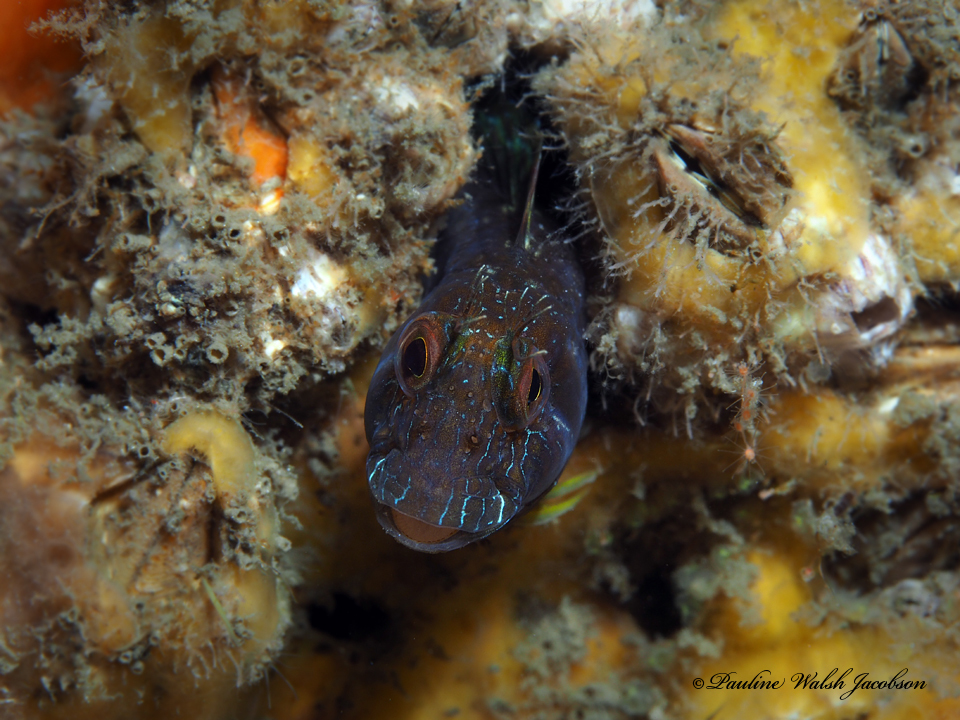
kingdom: Animalia
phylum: Chordata
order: Perciformes
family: Blenniidae
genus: Parablennius
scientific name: Parablennius marmoreus
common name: Seaweed blenny
